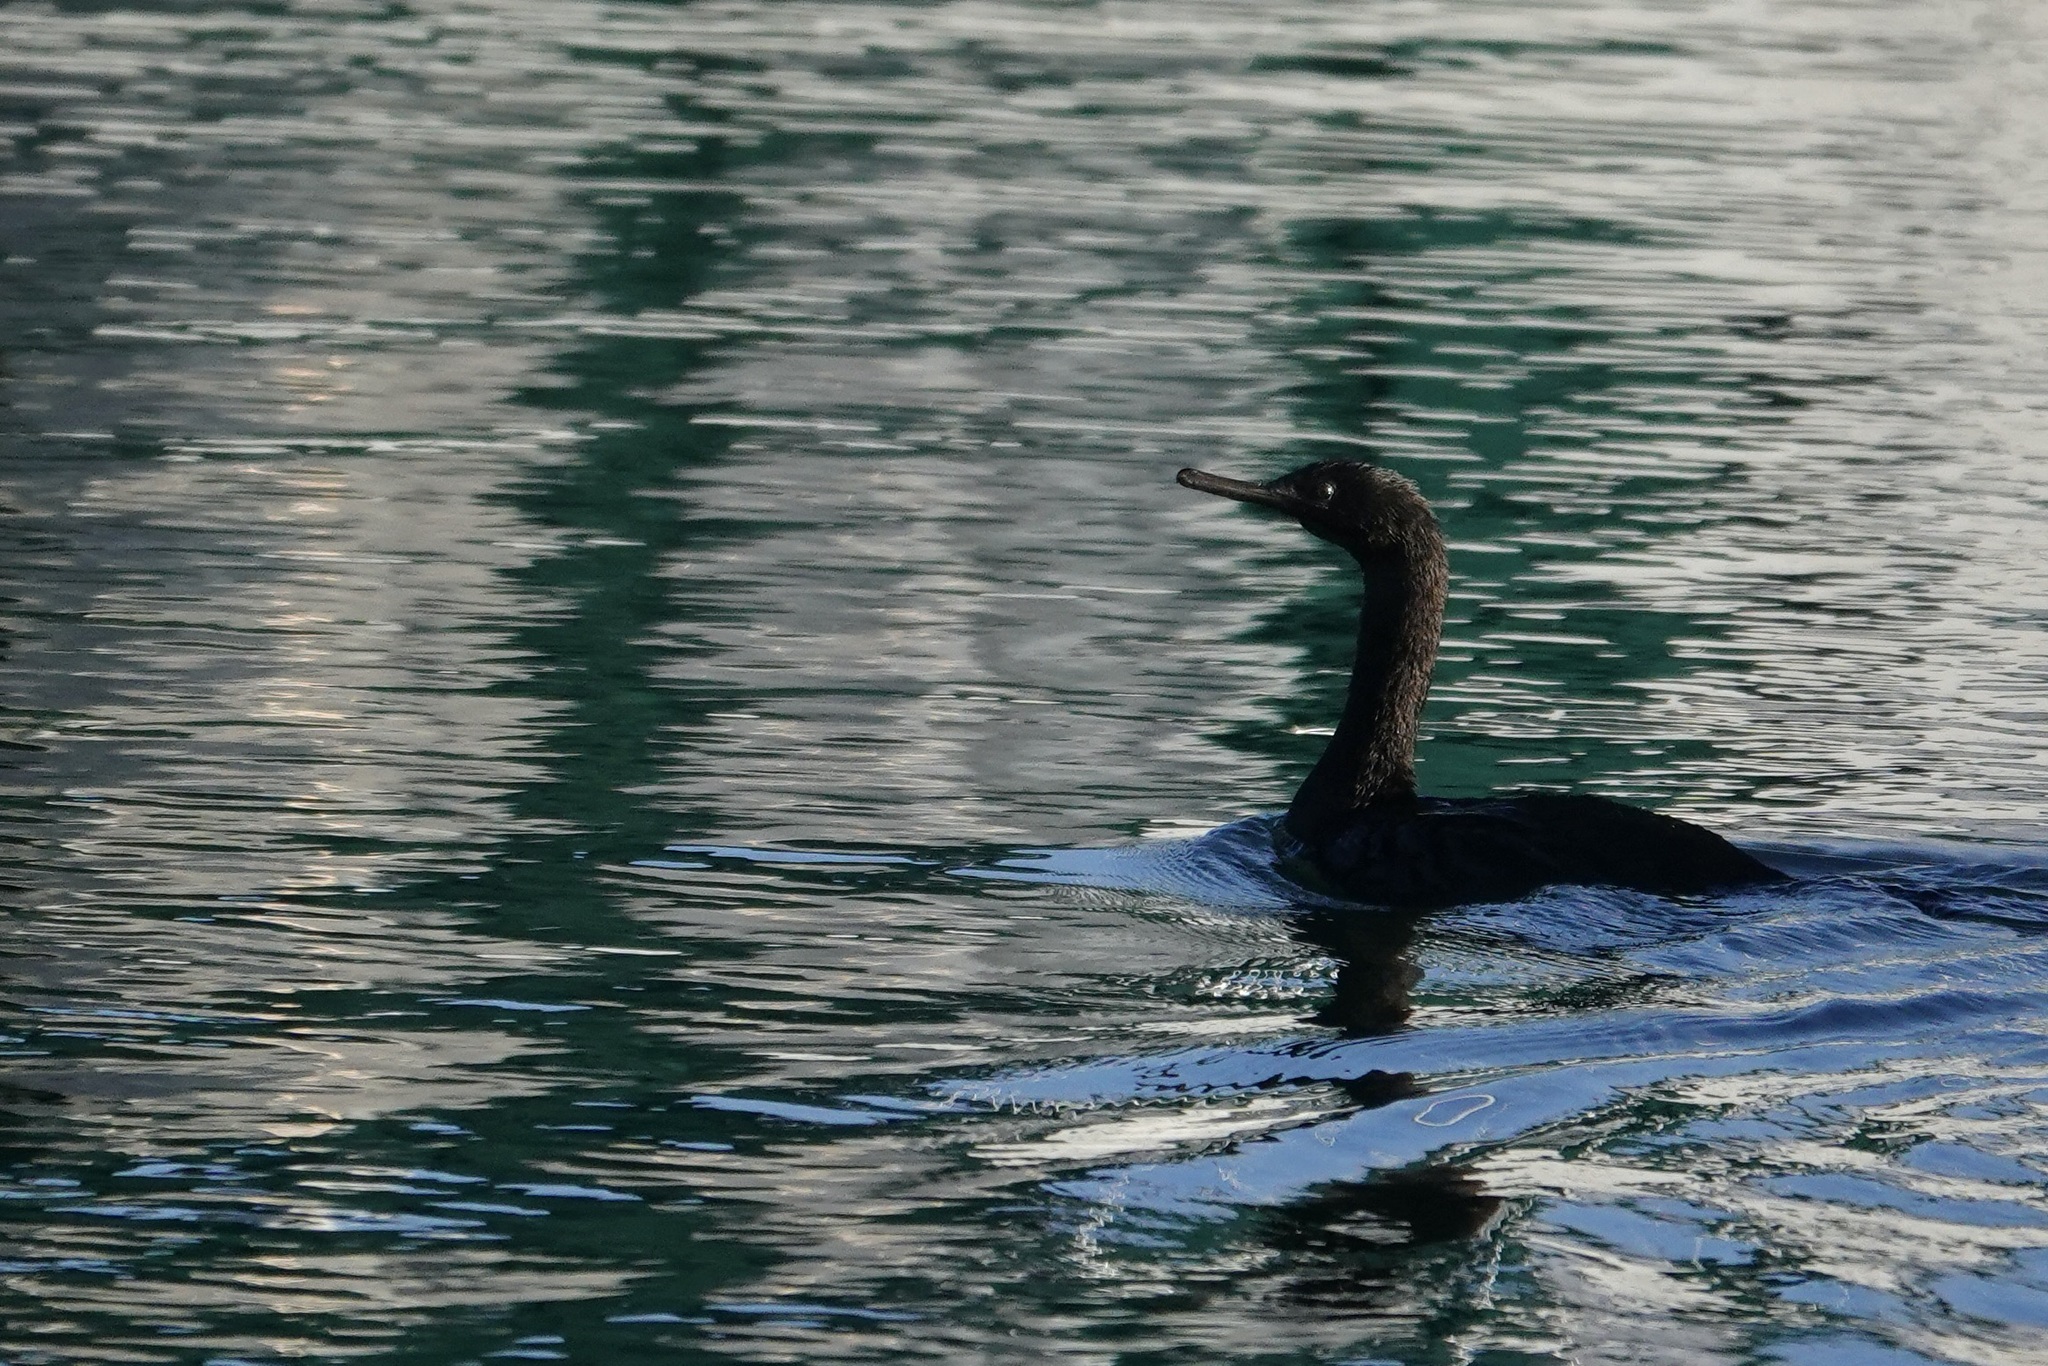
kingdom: Animalia
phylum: Chordata
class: Aves
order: Suliformes
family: Phalacrocoracidae
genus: Phalacrocorax
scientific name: Phalacrocorax pelagicus
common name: Pelagic cormorant
